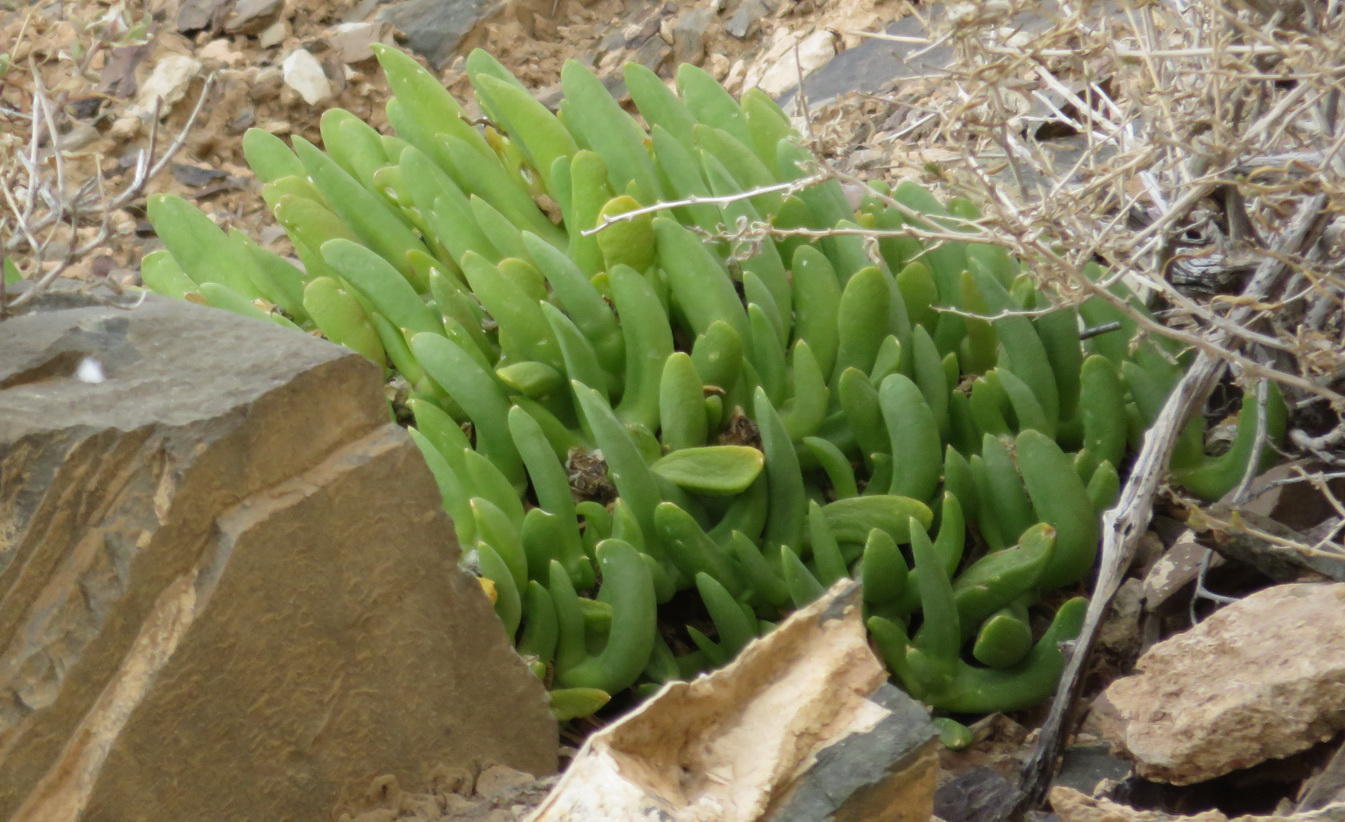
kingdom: Plantae
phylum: Tracheophyta
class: Magnoliopsida
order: Caryophyllales
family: Aizoaceae
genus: Glottiphyllum
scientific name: Glottiphyllum surrectum
